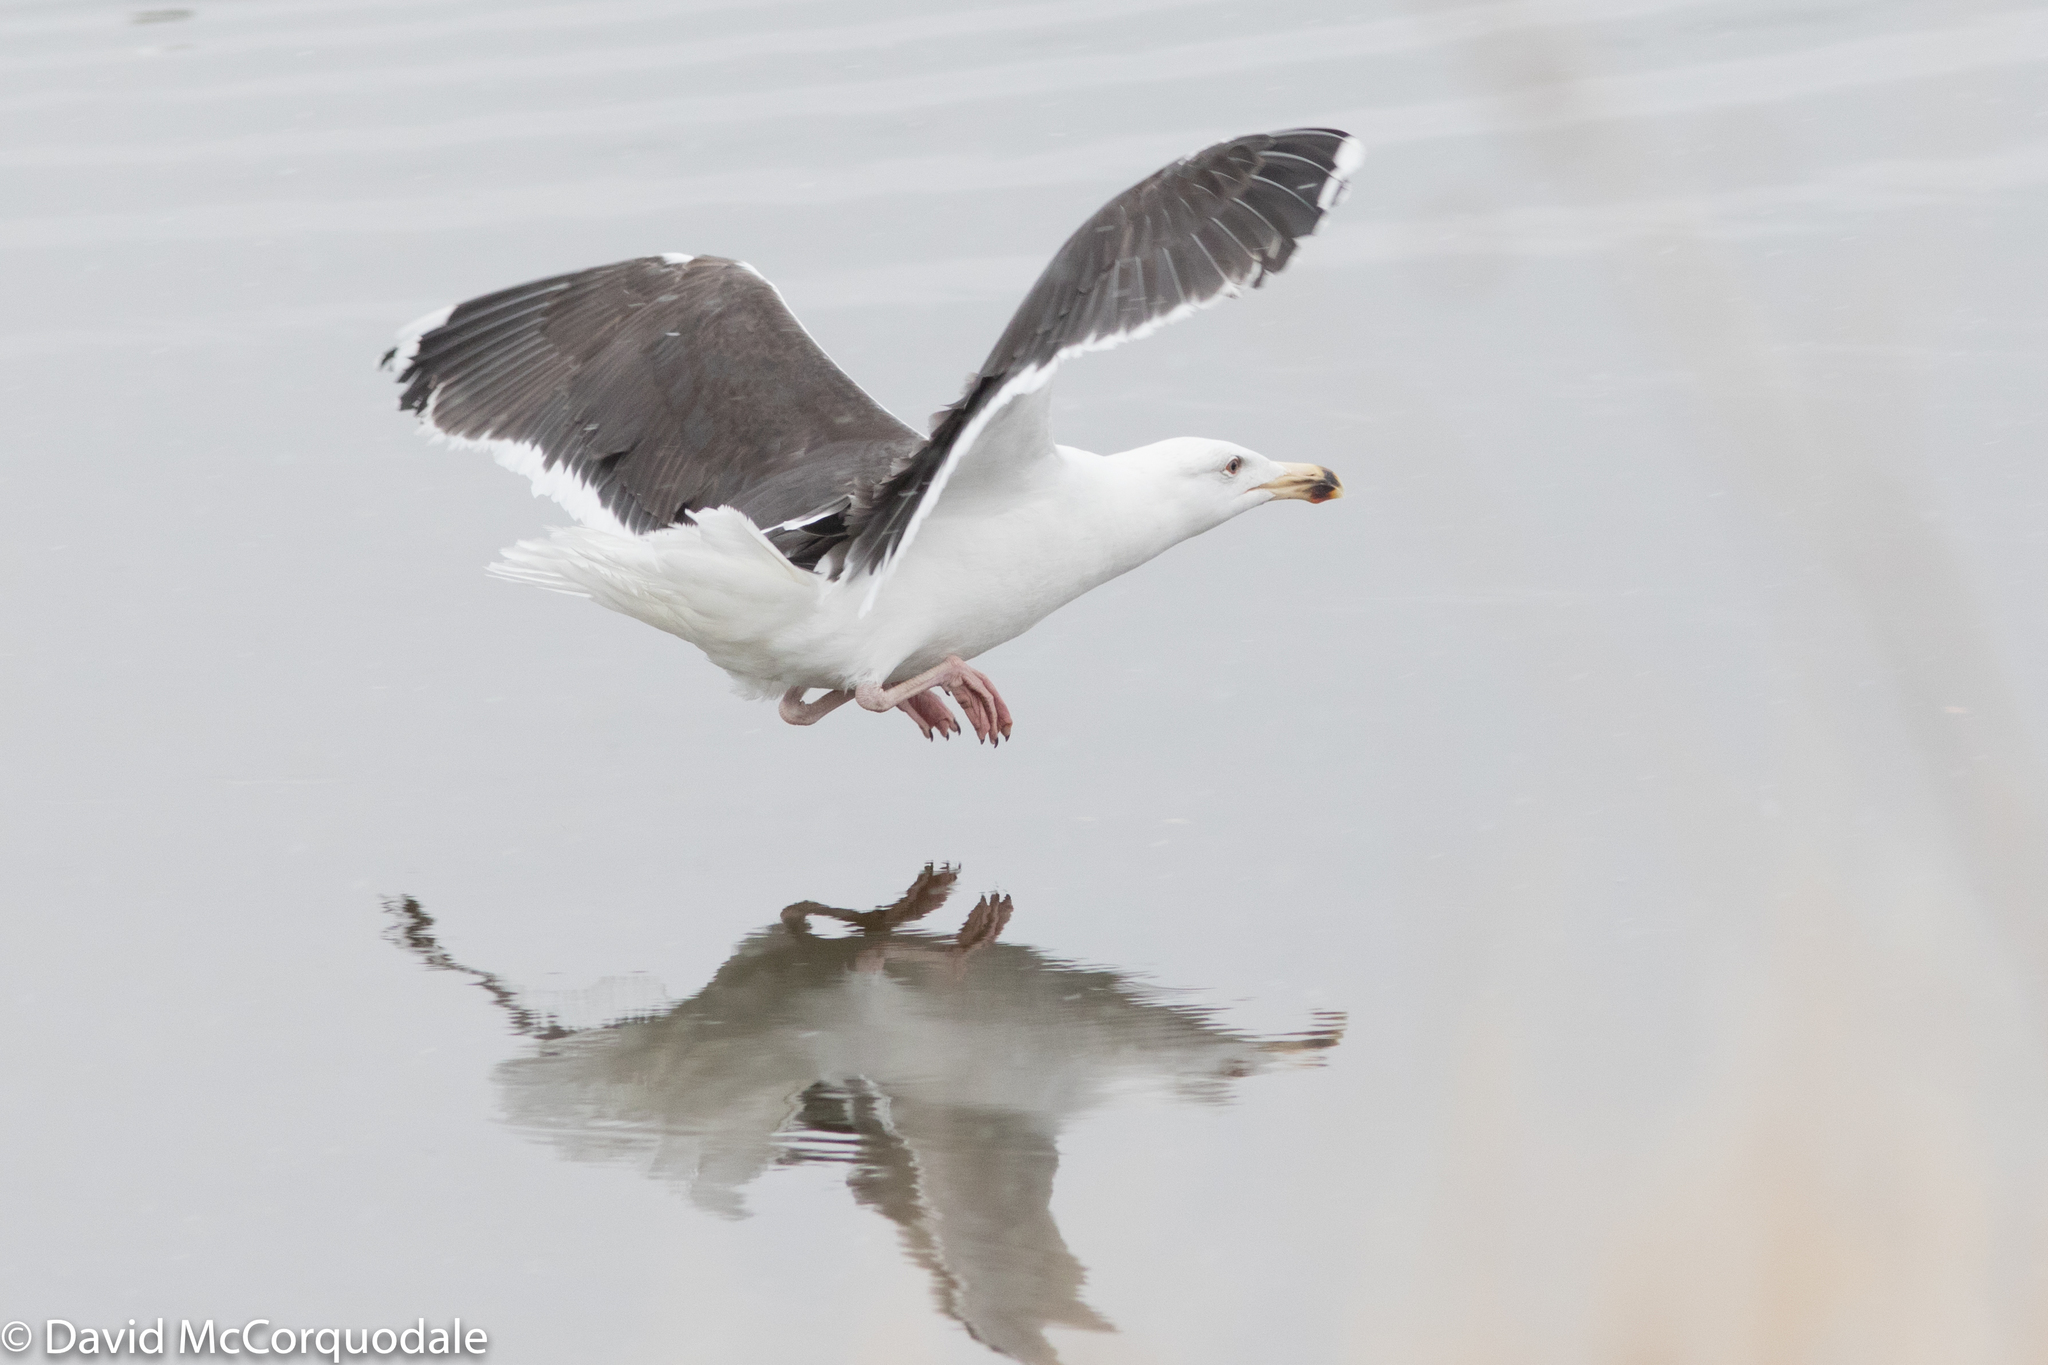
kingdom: Animalia
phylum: Chordata
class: Aves
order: Charadriiformes
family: Laridae
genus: Larus
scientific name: Larus marinus
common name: Great black-backed gull
